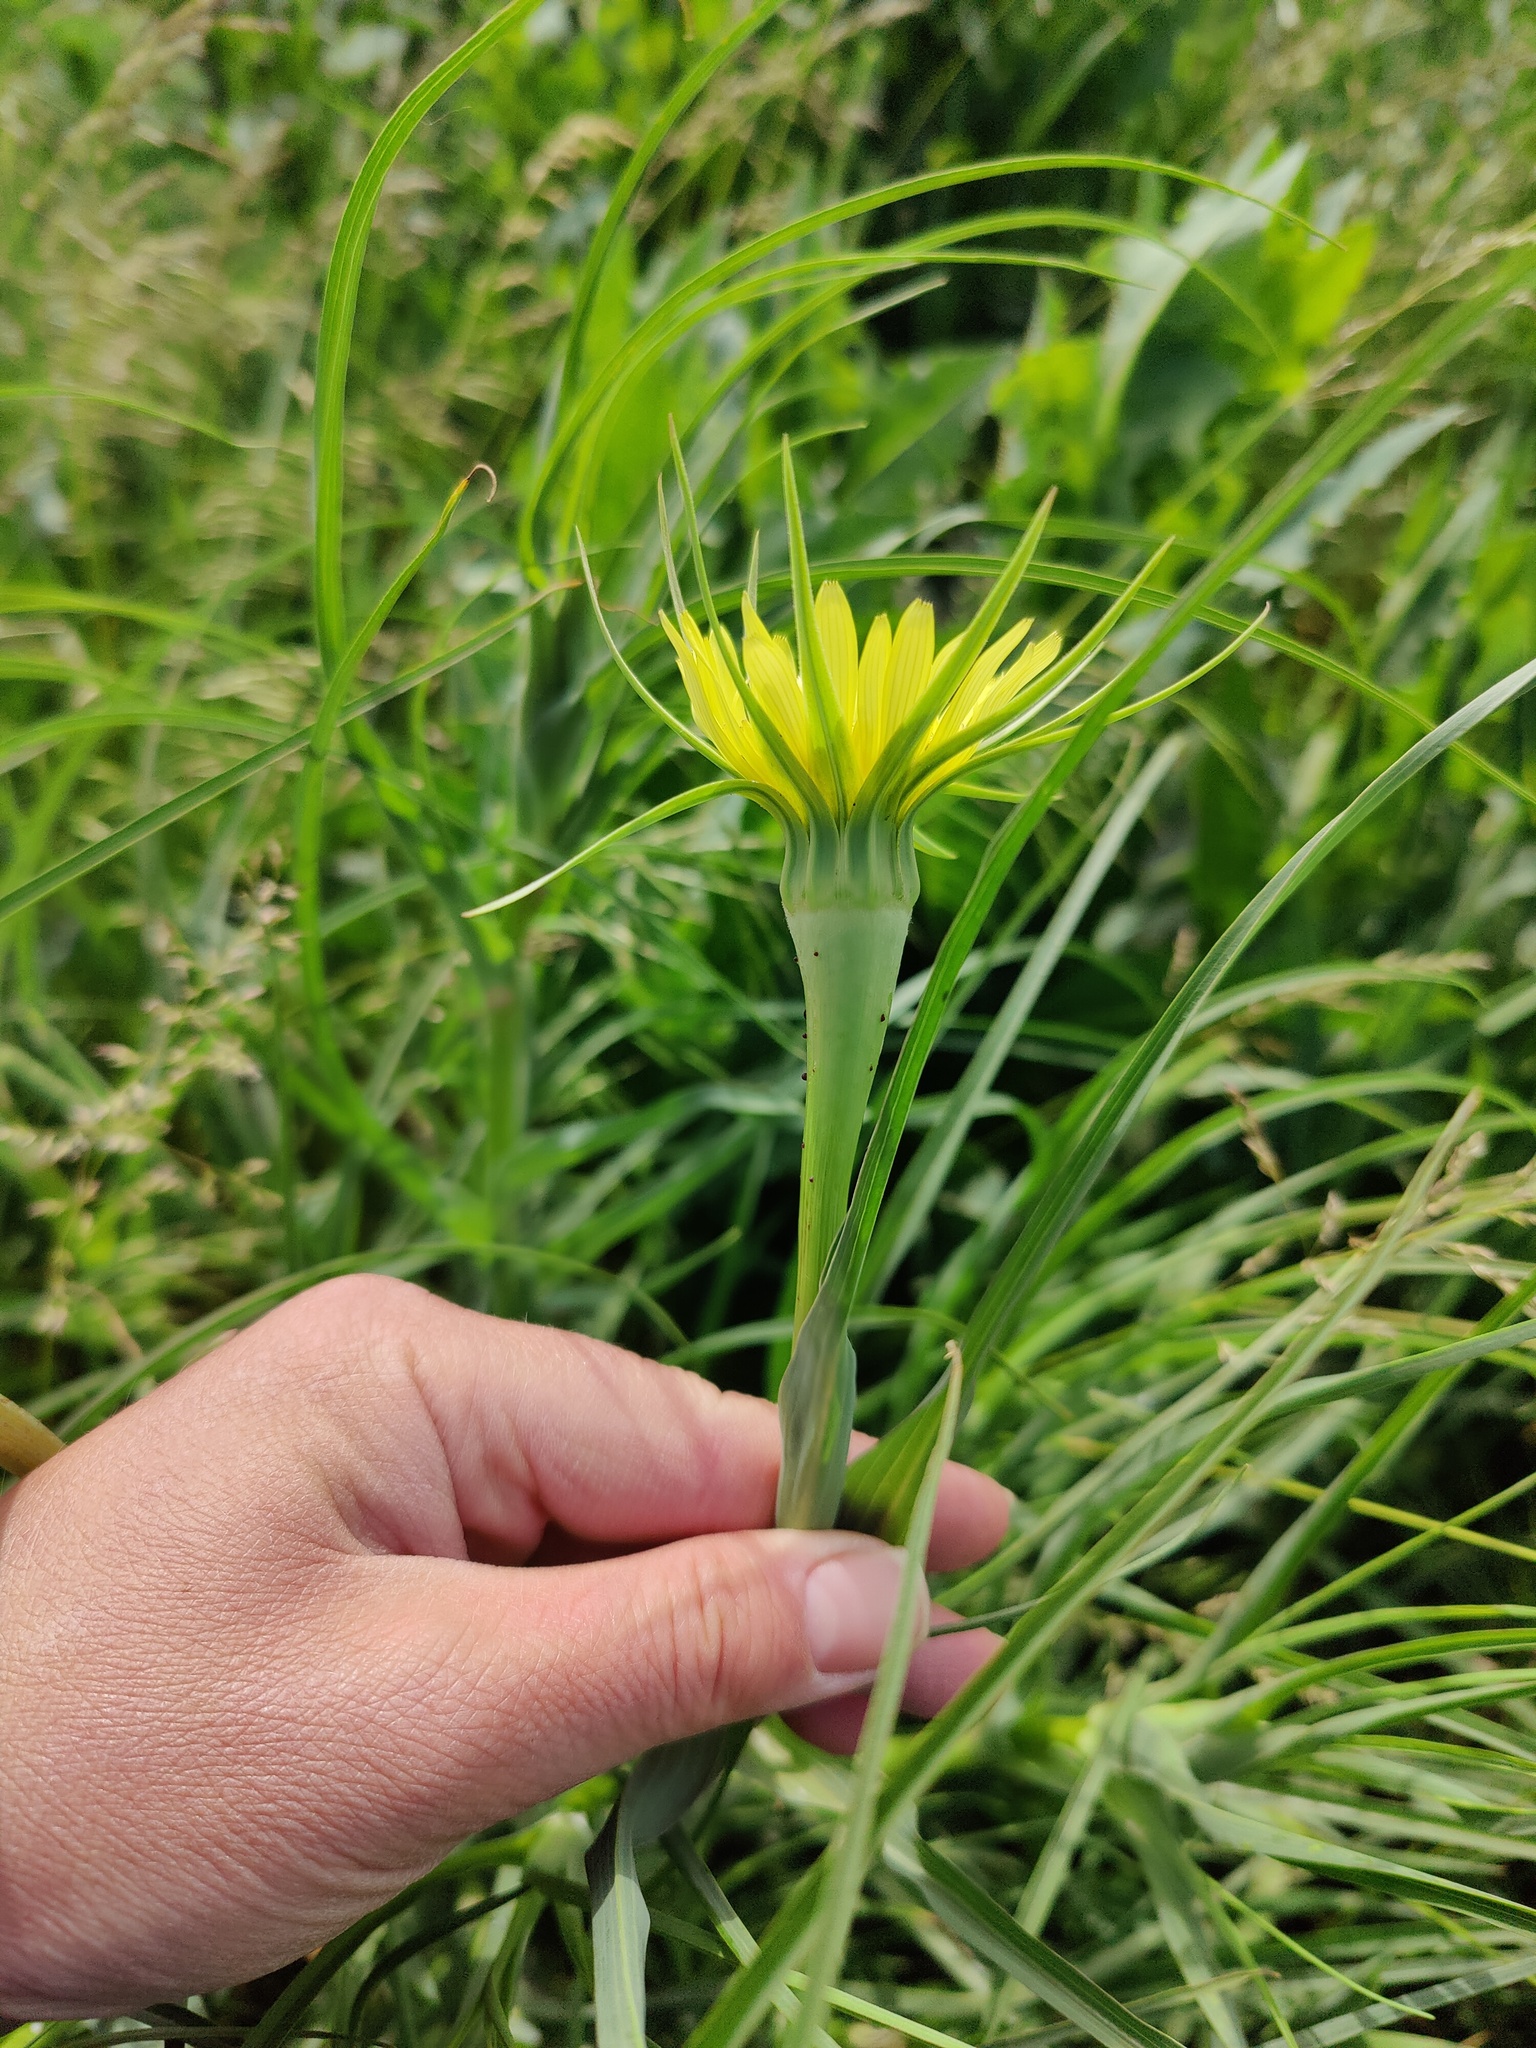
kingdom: Plantae
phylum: Tracheophyta
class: Magnoliopsida
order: Asterales
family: Asteraceae
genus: Tragopogon
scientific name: Tragopogon dubius
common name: Yellow salsify
